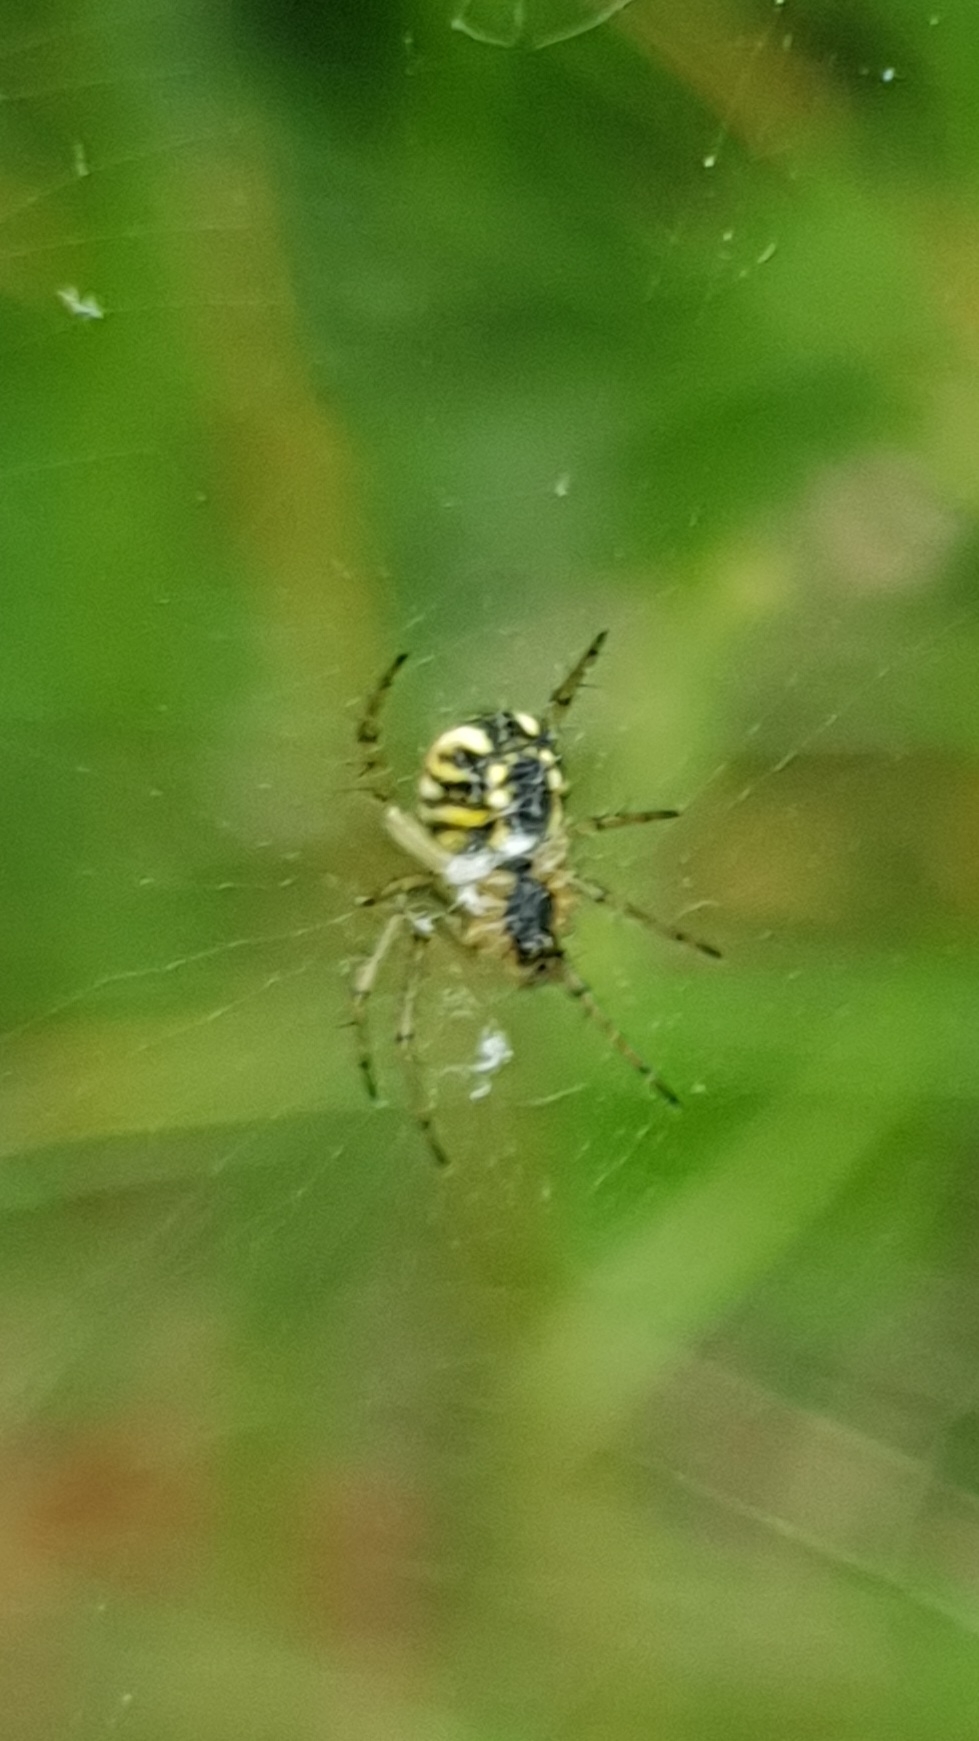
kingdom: Animalia
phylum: Arthropoda
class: Arachnida
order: Araneae
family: Araneidae
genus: Mangora
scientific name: Mangora acalypha
